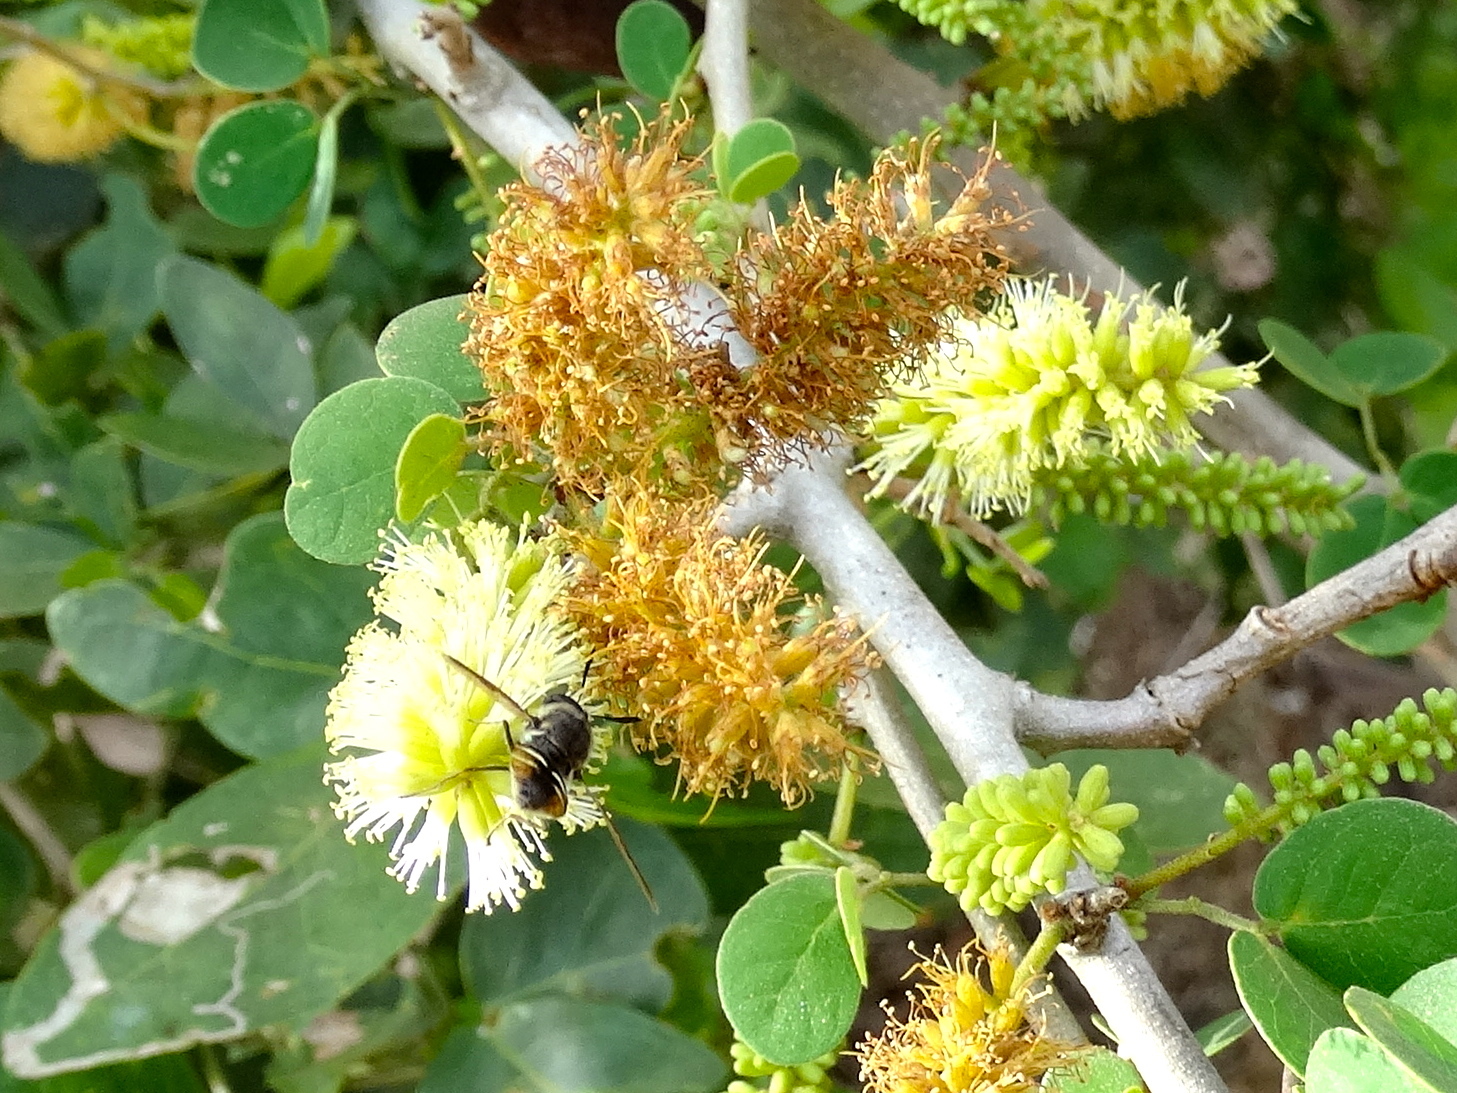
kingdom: Plantae
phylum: Tracheophyta
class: Magnoliopsida
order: Fabales
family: Fabaceae
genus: Microlobius
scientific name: Microlobius foetidus
